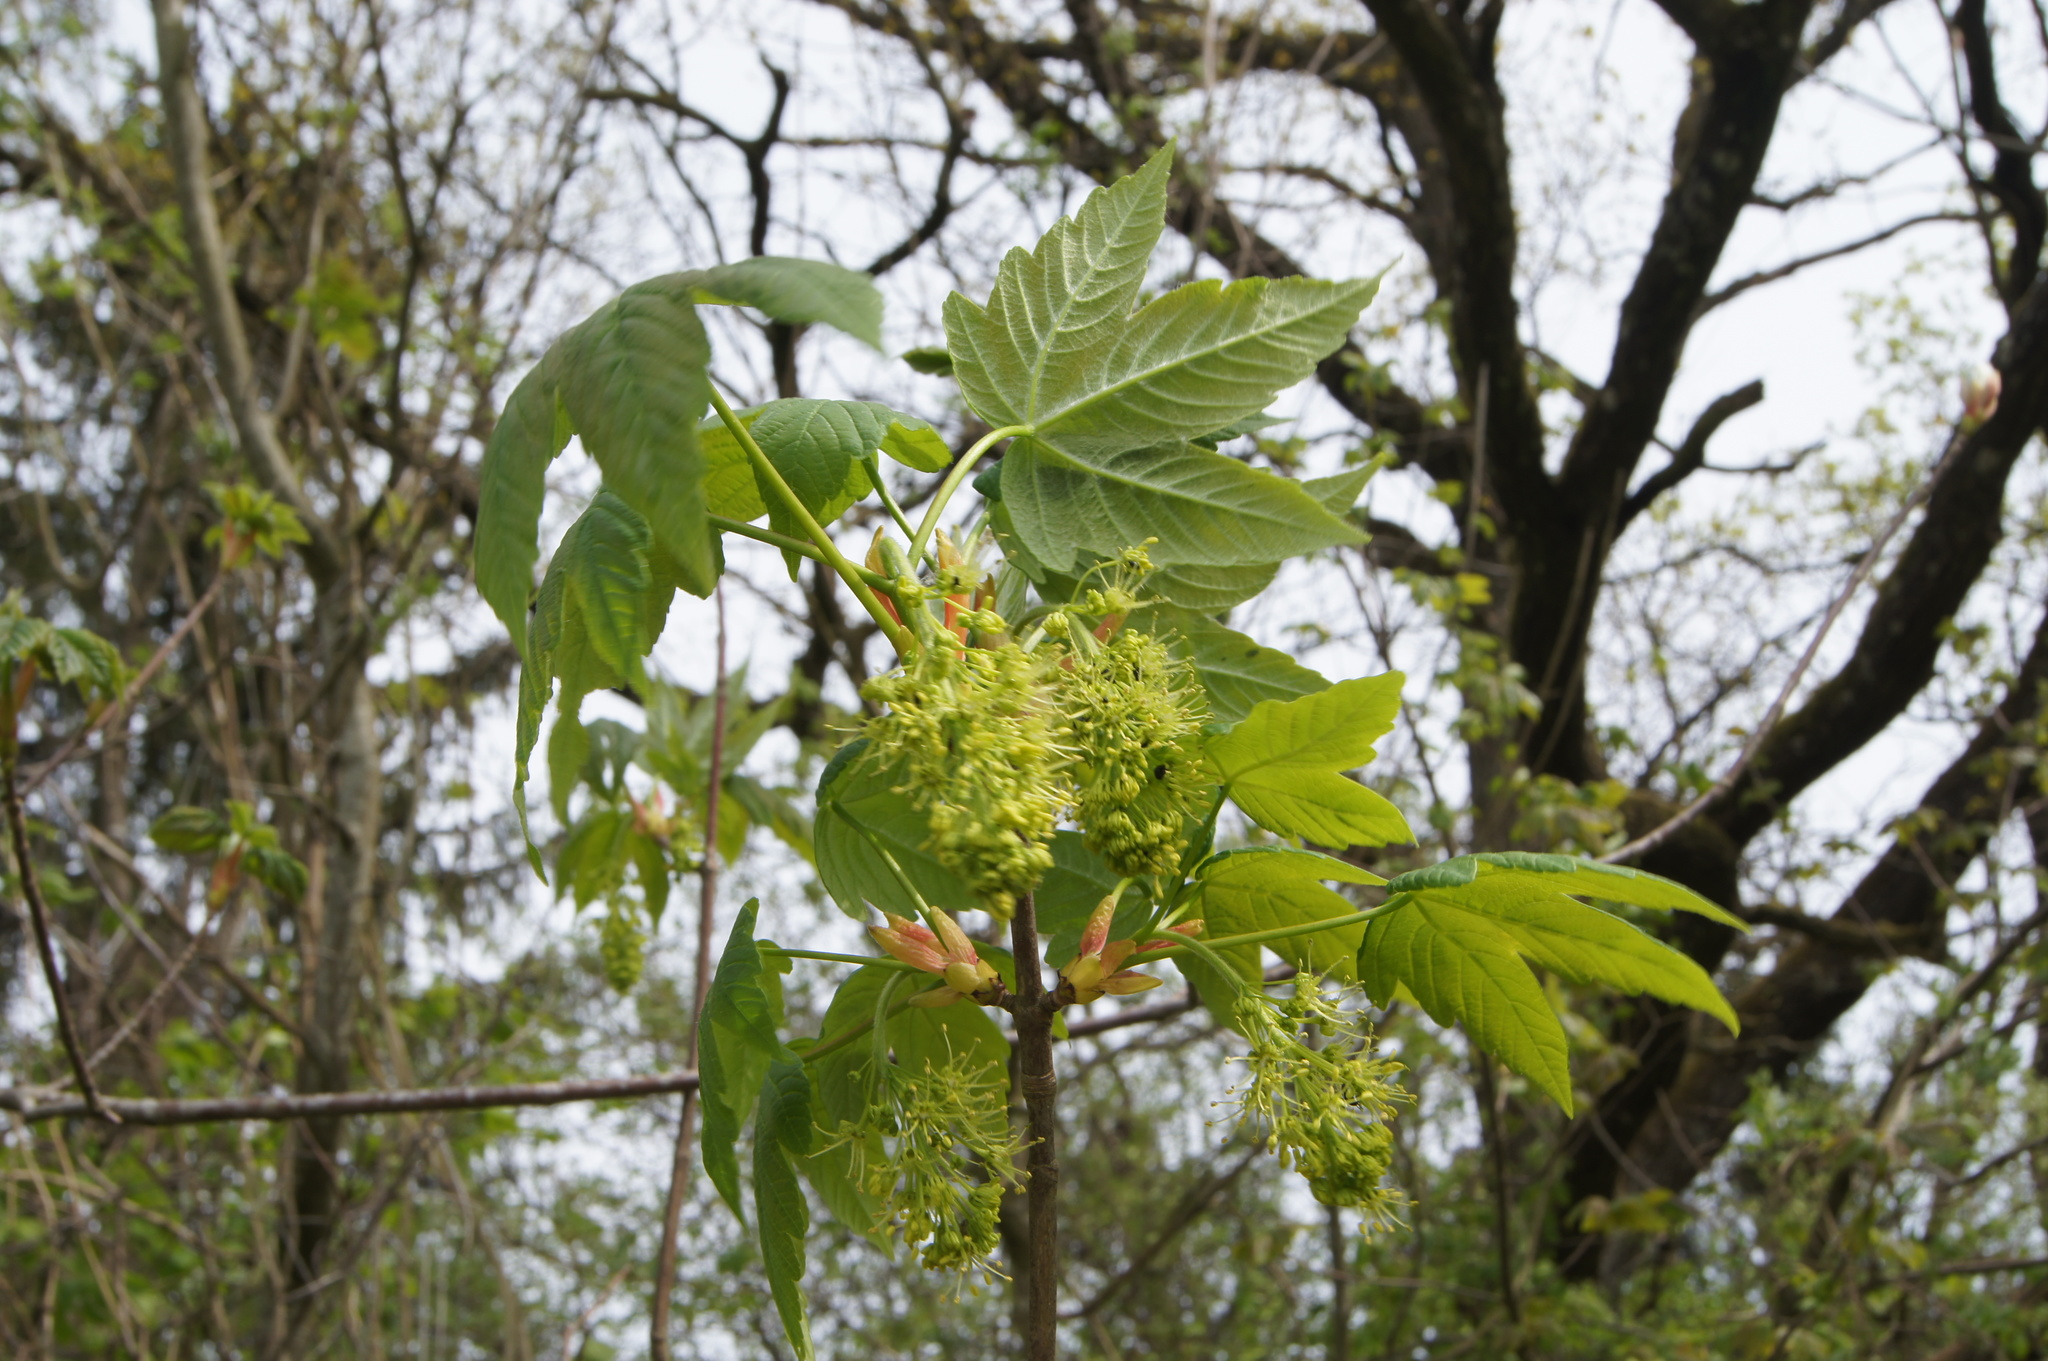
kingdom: Plantae
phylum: Tracheophyta
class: Magnoliopsida
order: Sapindales
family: Sapindaceae
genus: Acer
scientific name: Acer pseudoplatanus
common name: Sycamore
